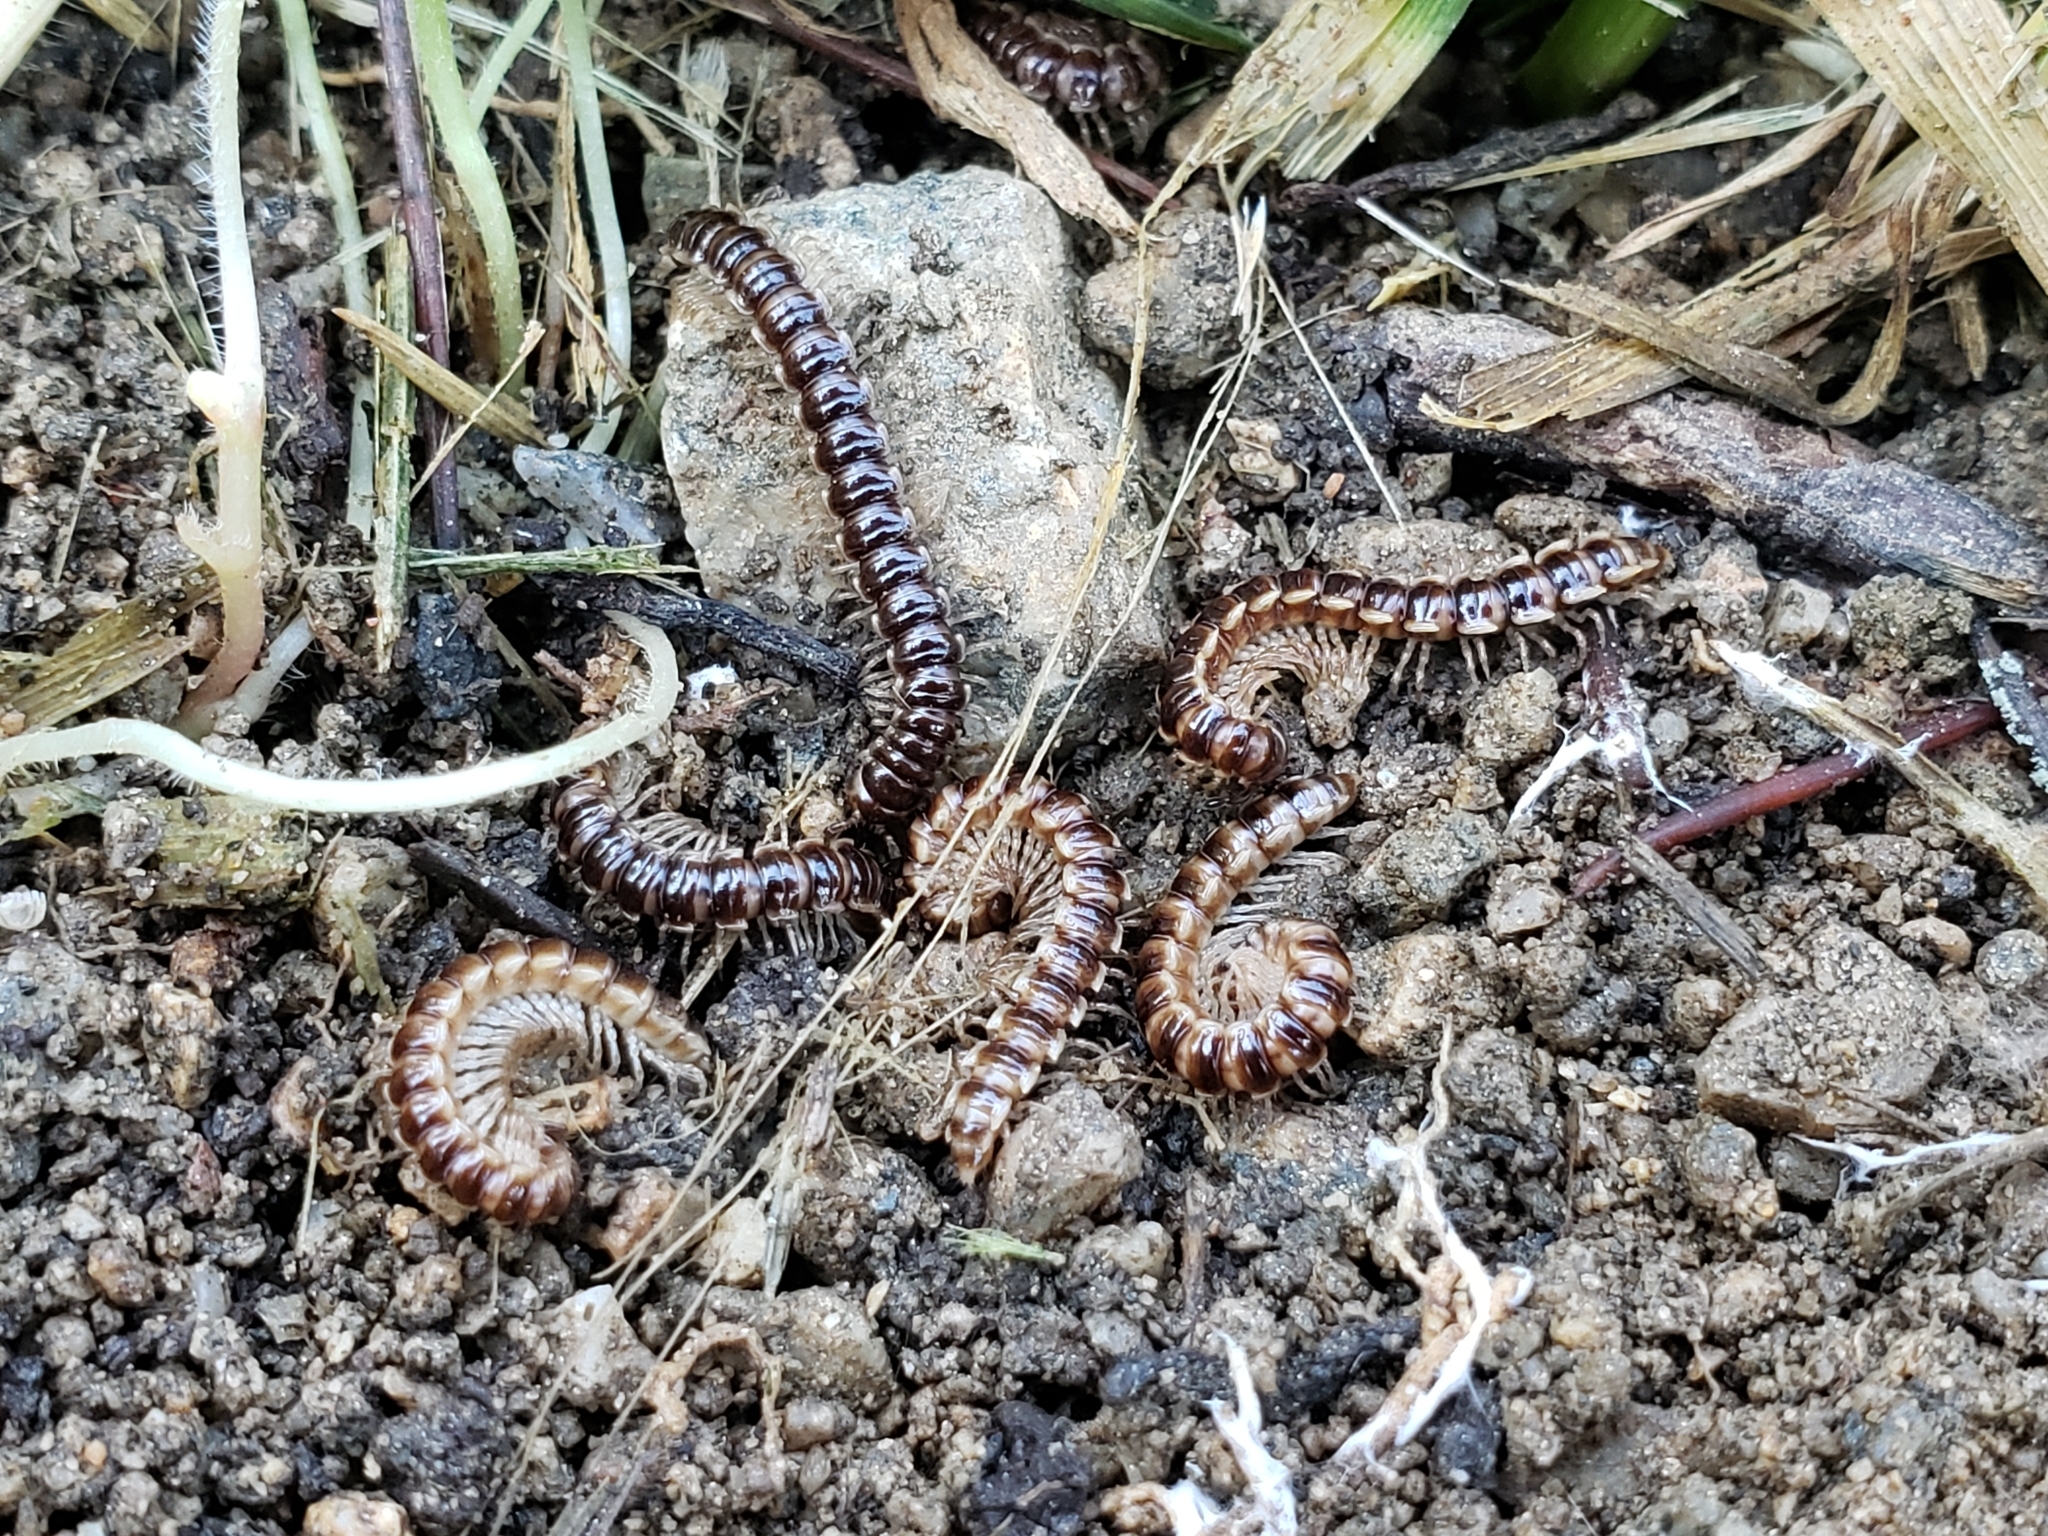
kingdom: Animalia
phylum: Arthropoda
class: Diplopoda
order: Polydesmida
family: Paradoxosomatidae
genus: Oxidus
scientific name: Oxidus gracilis
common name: Greenhouse millipede
